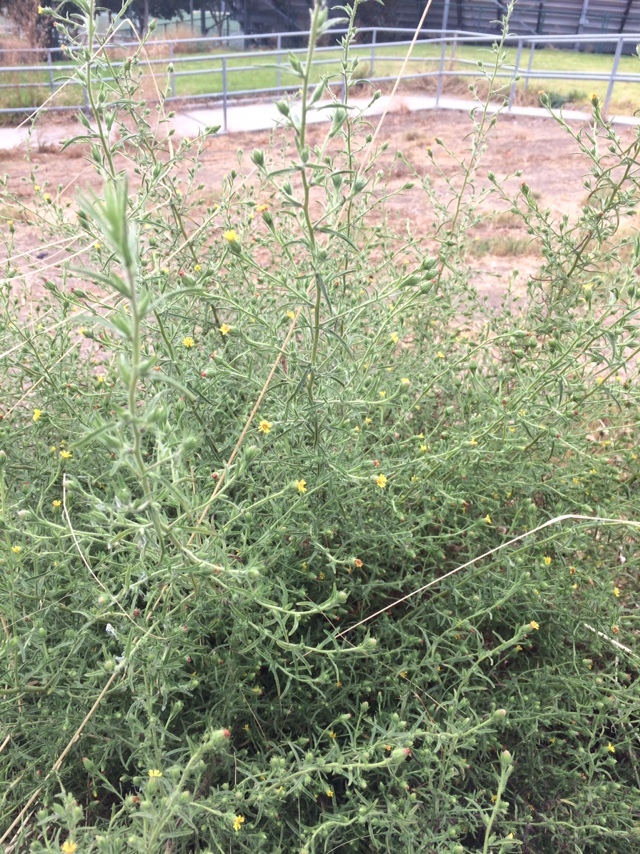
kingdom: Plantae
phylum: Tracheophyta
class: Magnoliopsida
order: Asterales
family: Asteraceae
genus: Dittrichia
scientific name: Dittrichia graveolens
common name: Stinking fleabane
